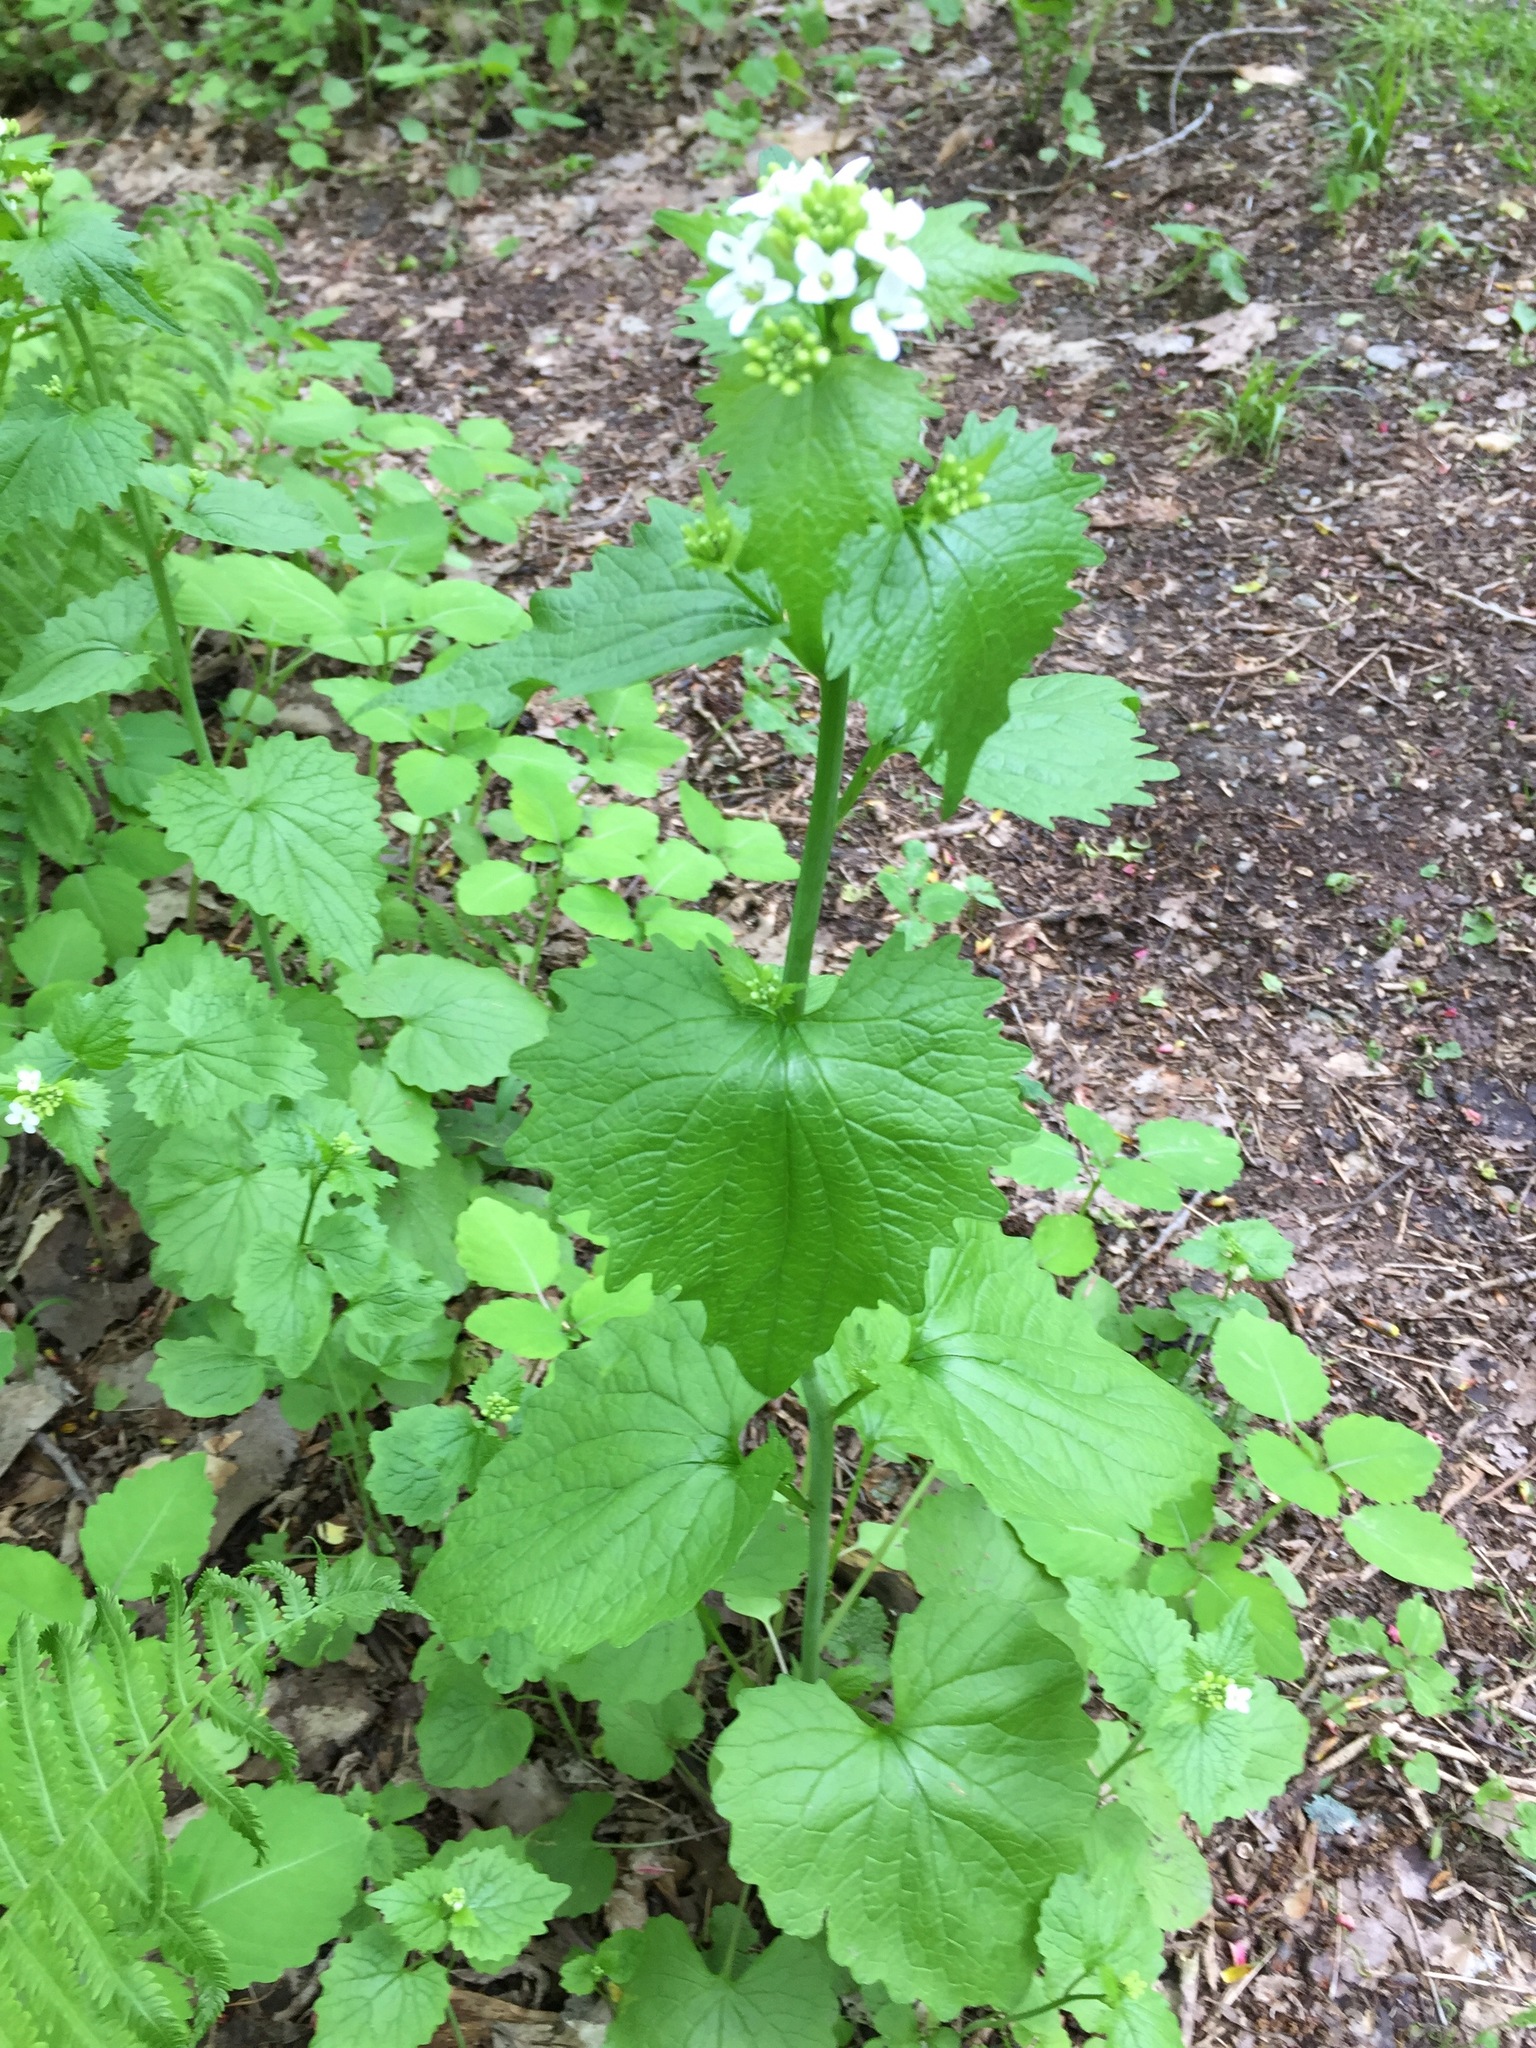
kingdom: Plantae
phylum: Tracheophyta
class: Magnoliopsida
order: Brassicales
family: Brassicaceae
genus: Alliaria
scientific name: Alliaria petiolata
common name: Garlic mustard
